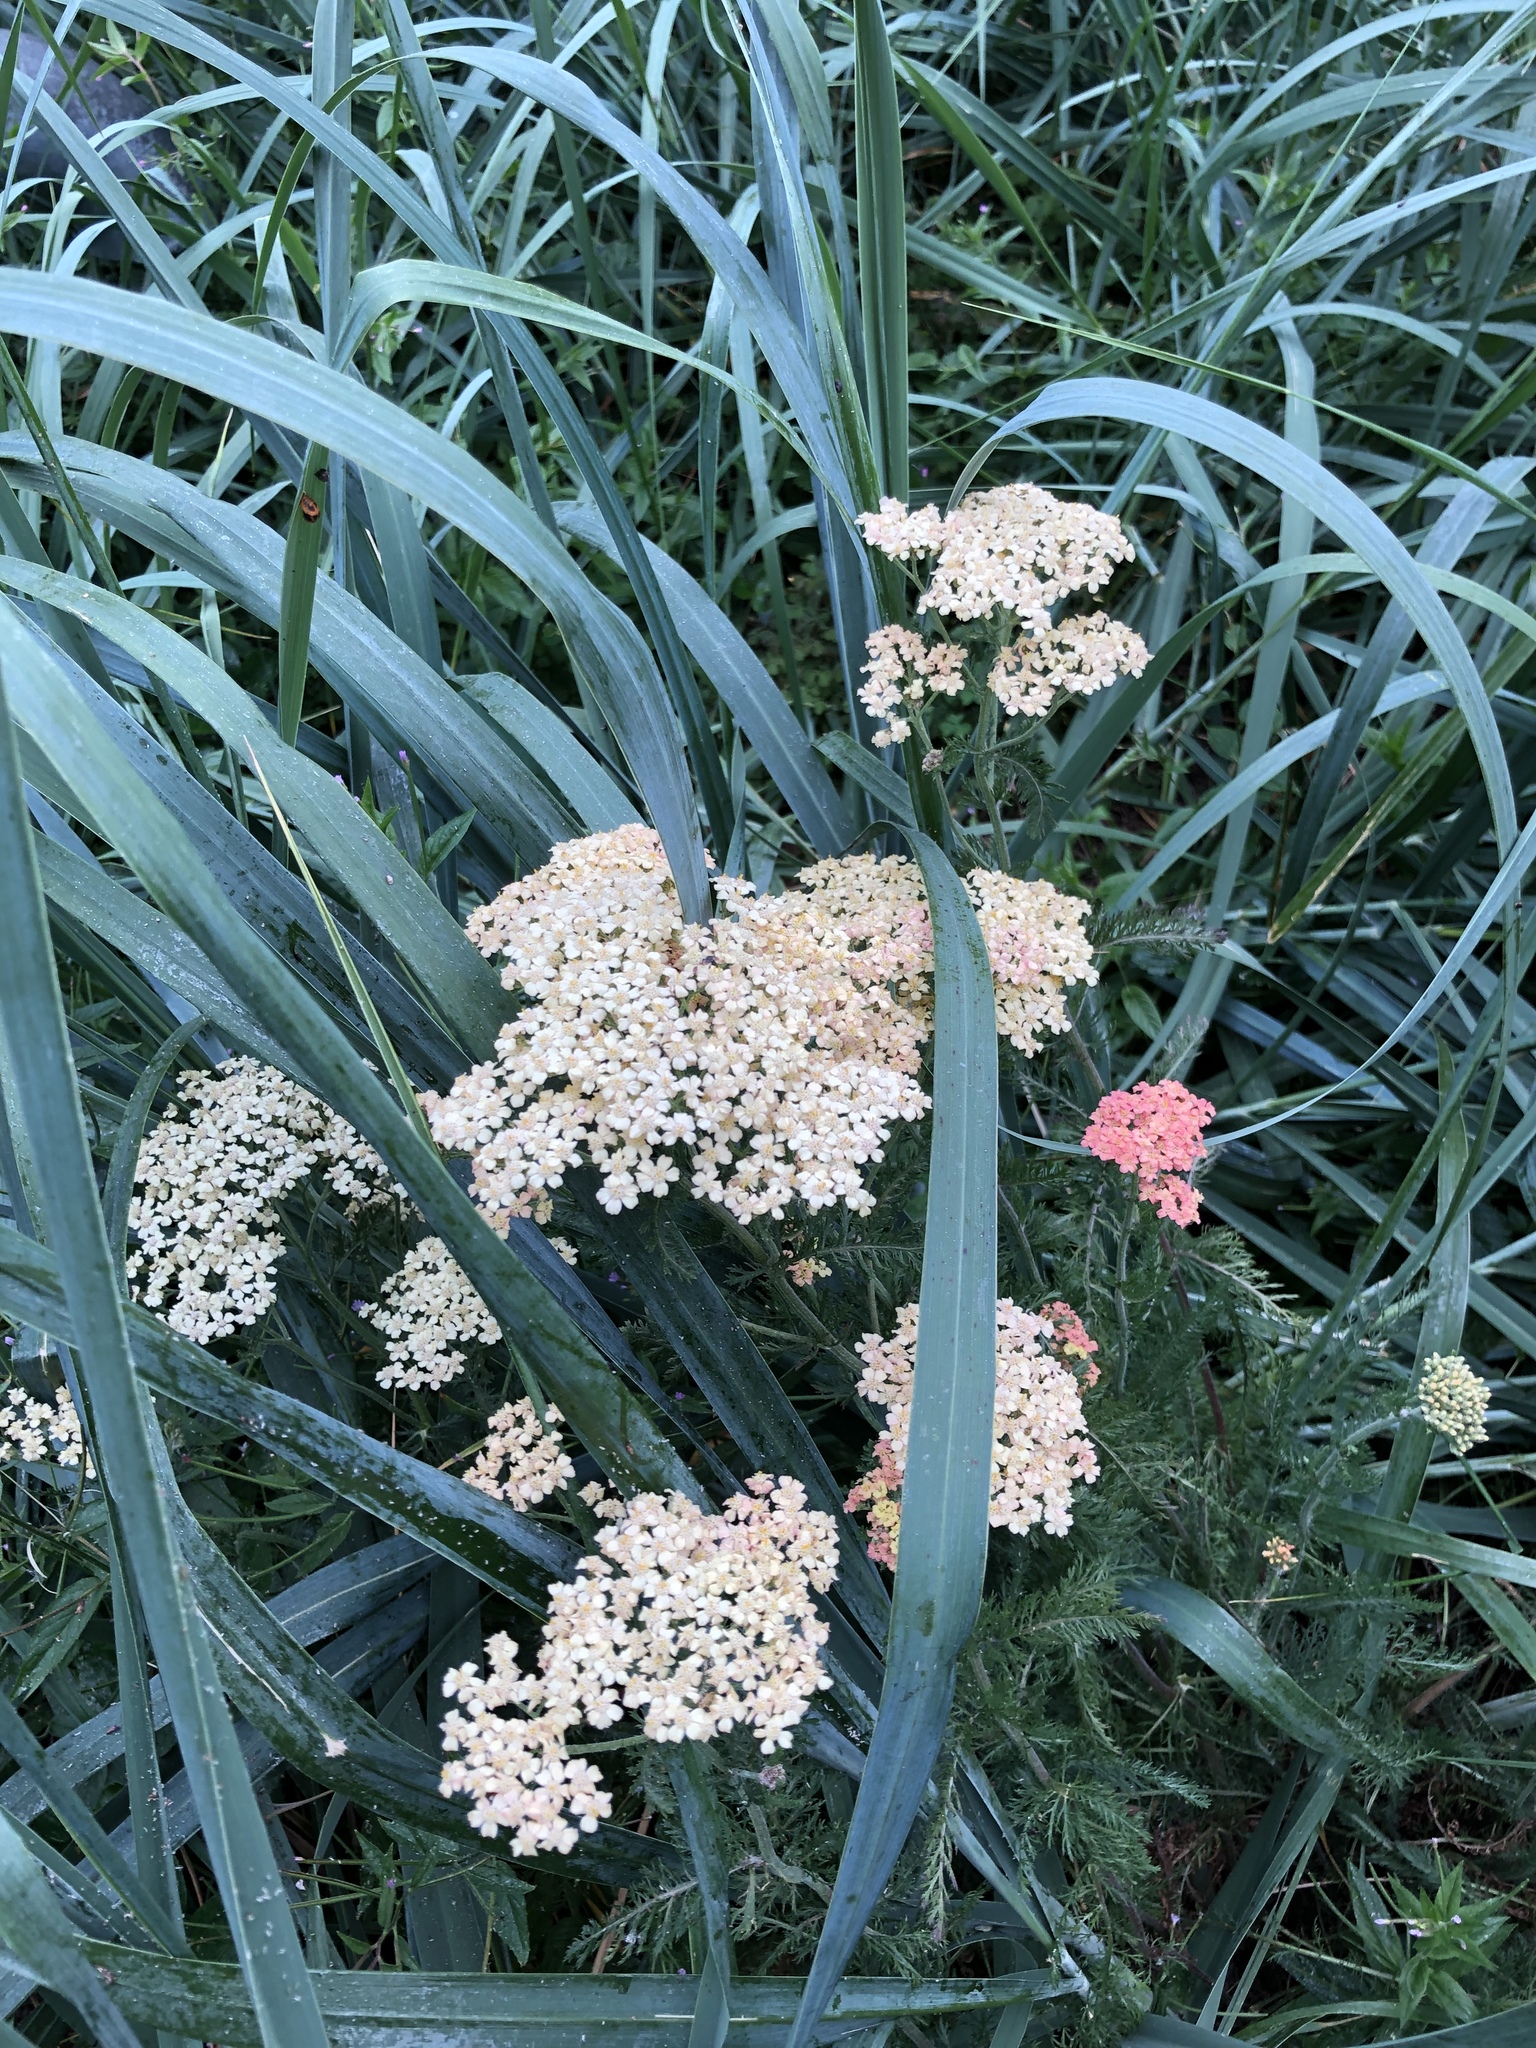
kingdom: Plantae
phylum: Tracheophyta
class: Magnoliopsida
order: Asterales
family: Asteraceae
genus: Achillea
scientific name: Achillea millefolium
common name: Yarrow
